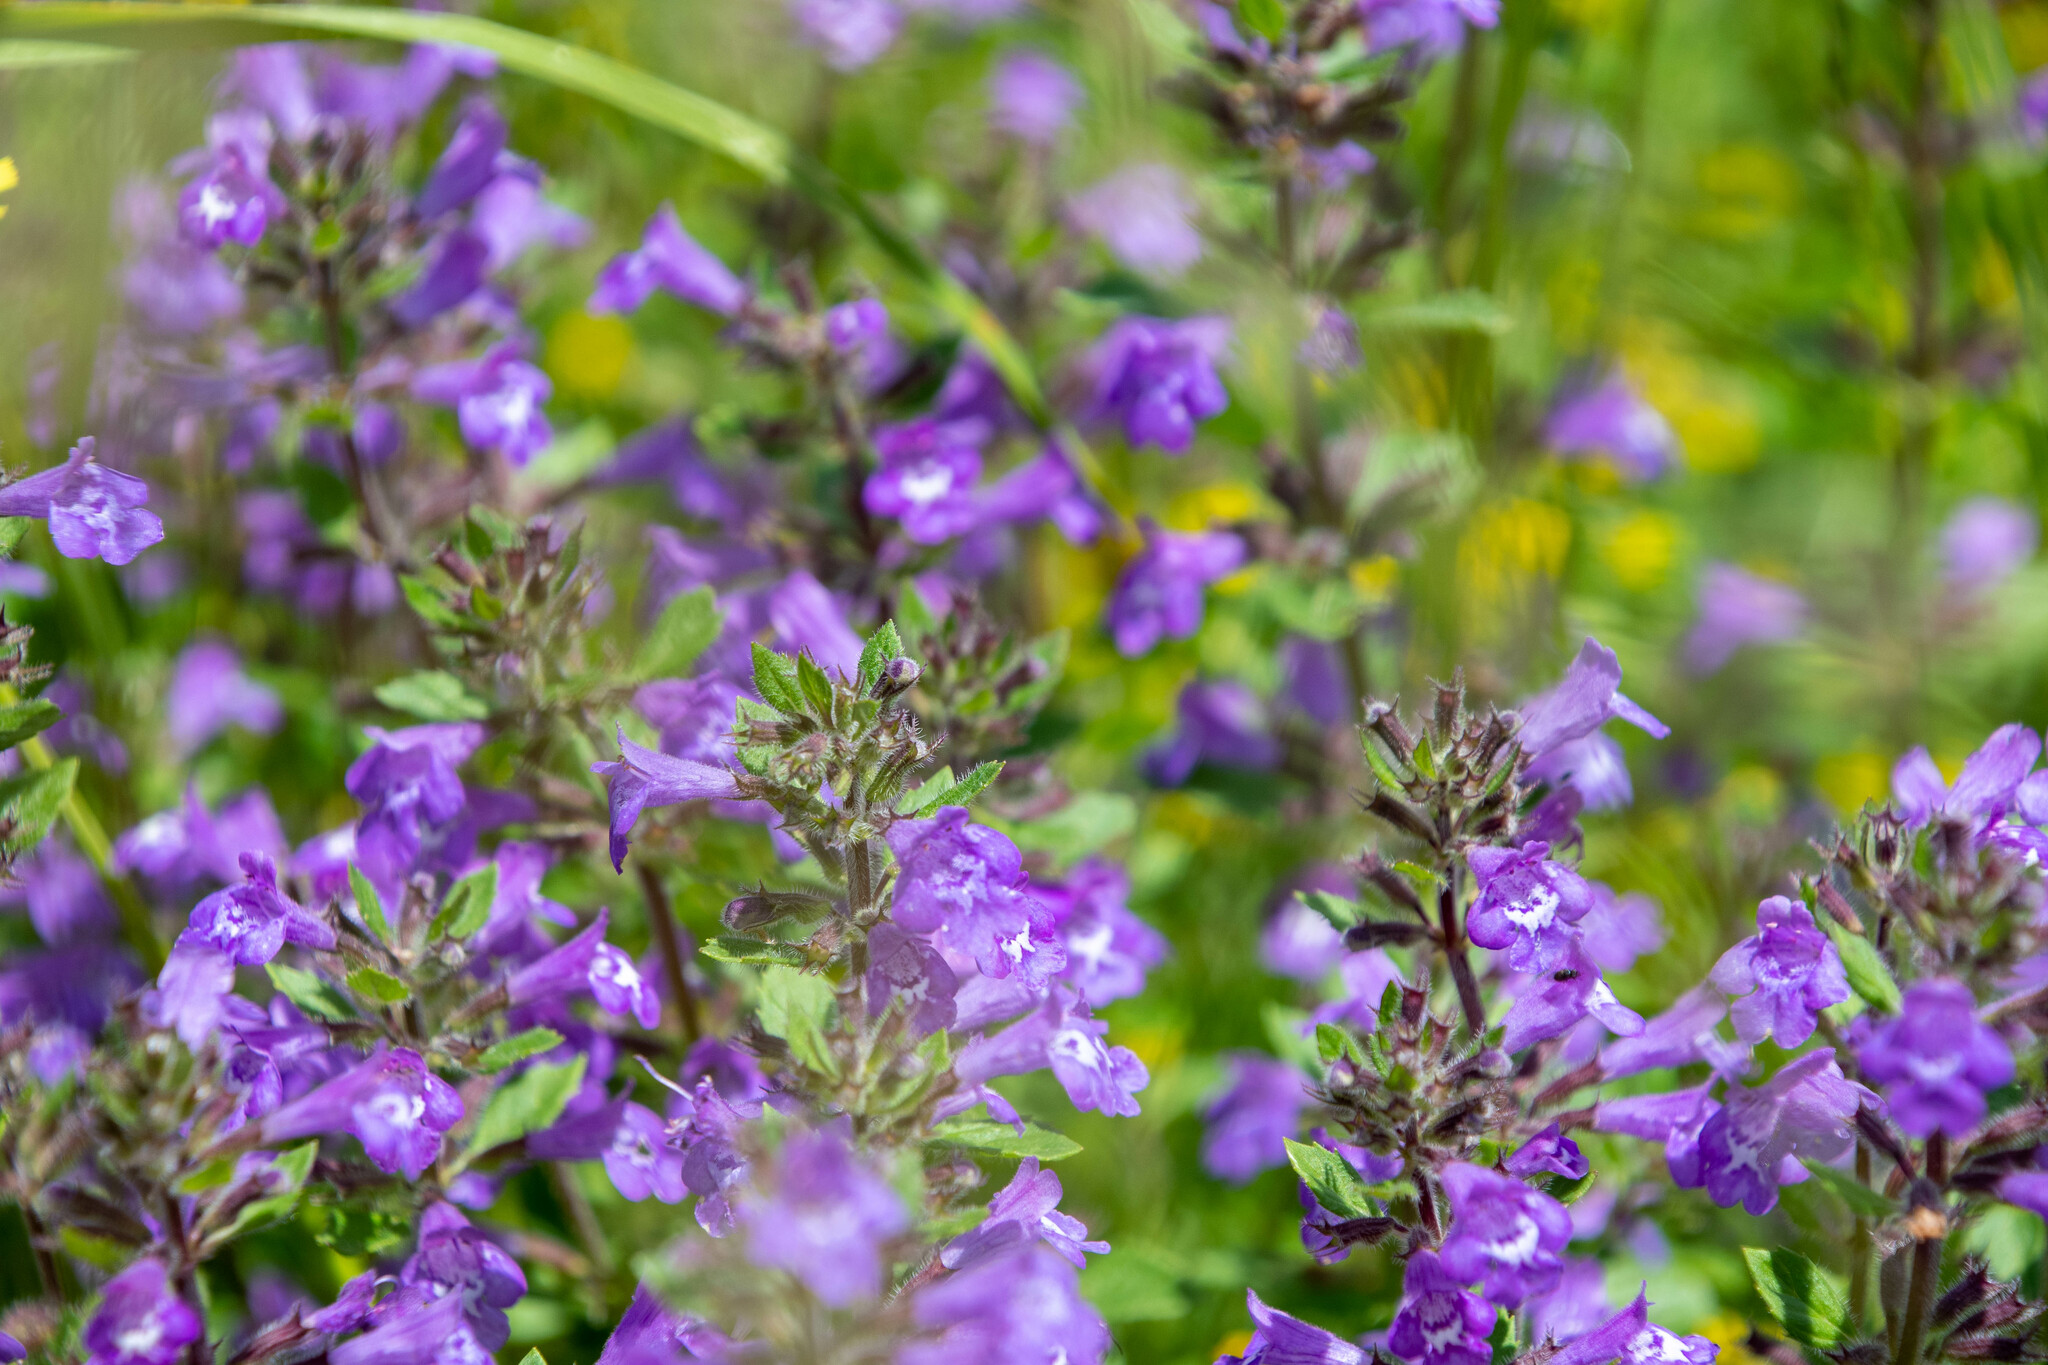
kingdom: Plantae
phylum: Tracheophyta
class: Magnoliopsida
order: Lamiales
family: Lamiaceae
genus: Clinopodium
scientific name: Clinopodium alpinum
